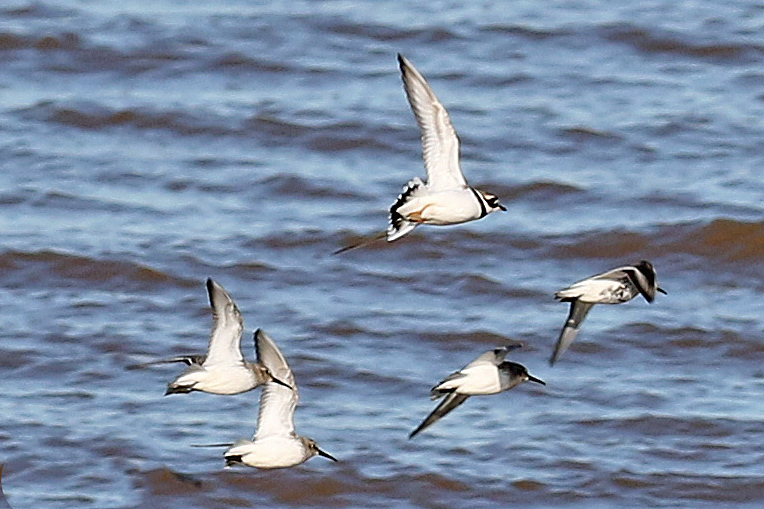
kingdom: Animalia
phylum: Chordata
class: Aves
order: Charadriiformes
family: Charadriidae
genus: Charadrius
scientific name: Charadrius hiaticula
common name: Common ringed plover
